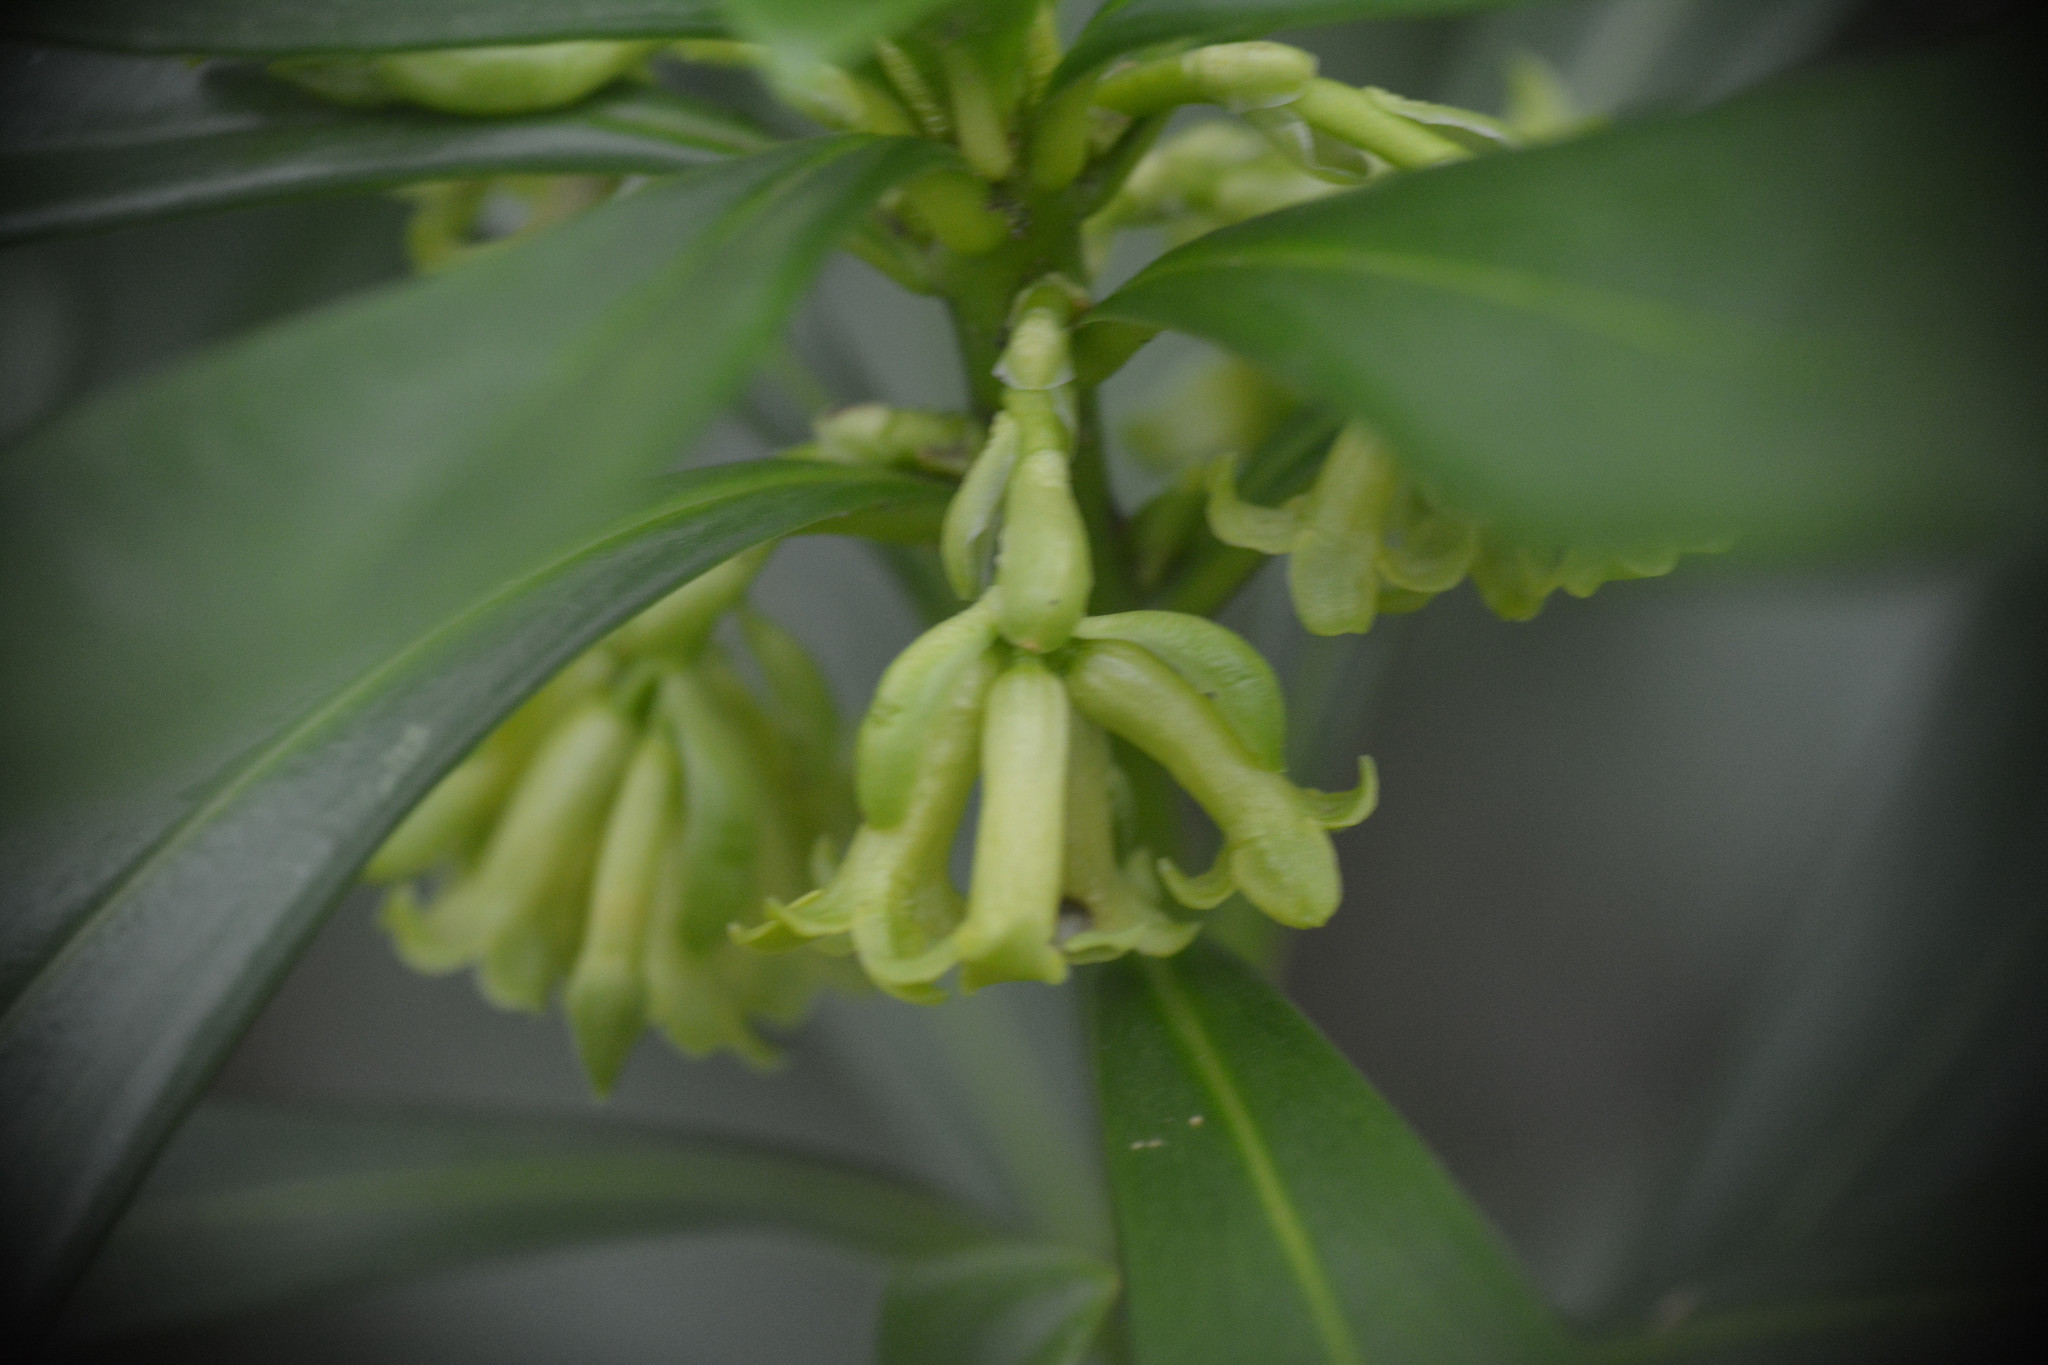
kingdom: Plantae
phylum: Tracheophyta
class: Magnoliopsida
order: Malvales
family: Thymelaeaceae
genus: Daphne
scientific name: Daphne laureola
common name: Spurge-laurel
